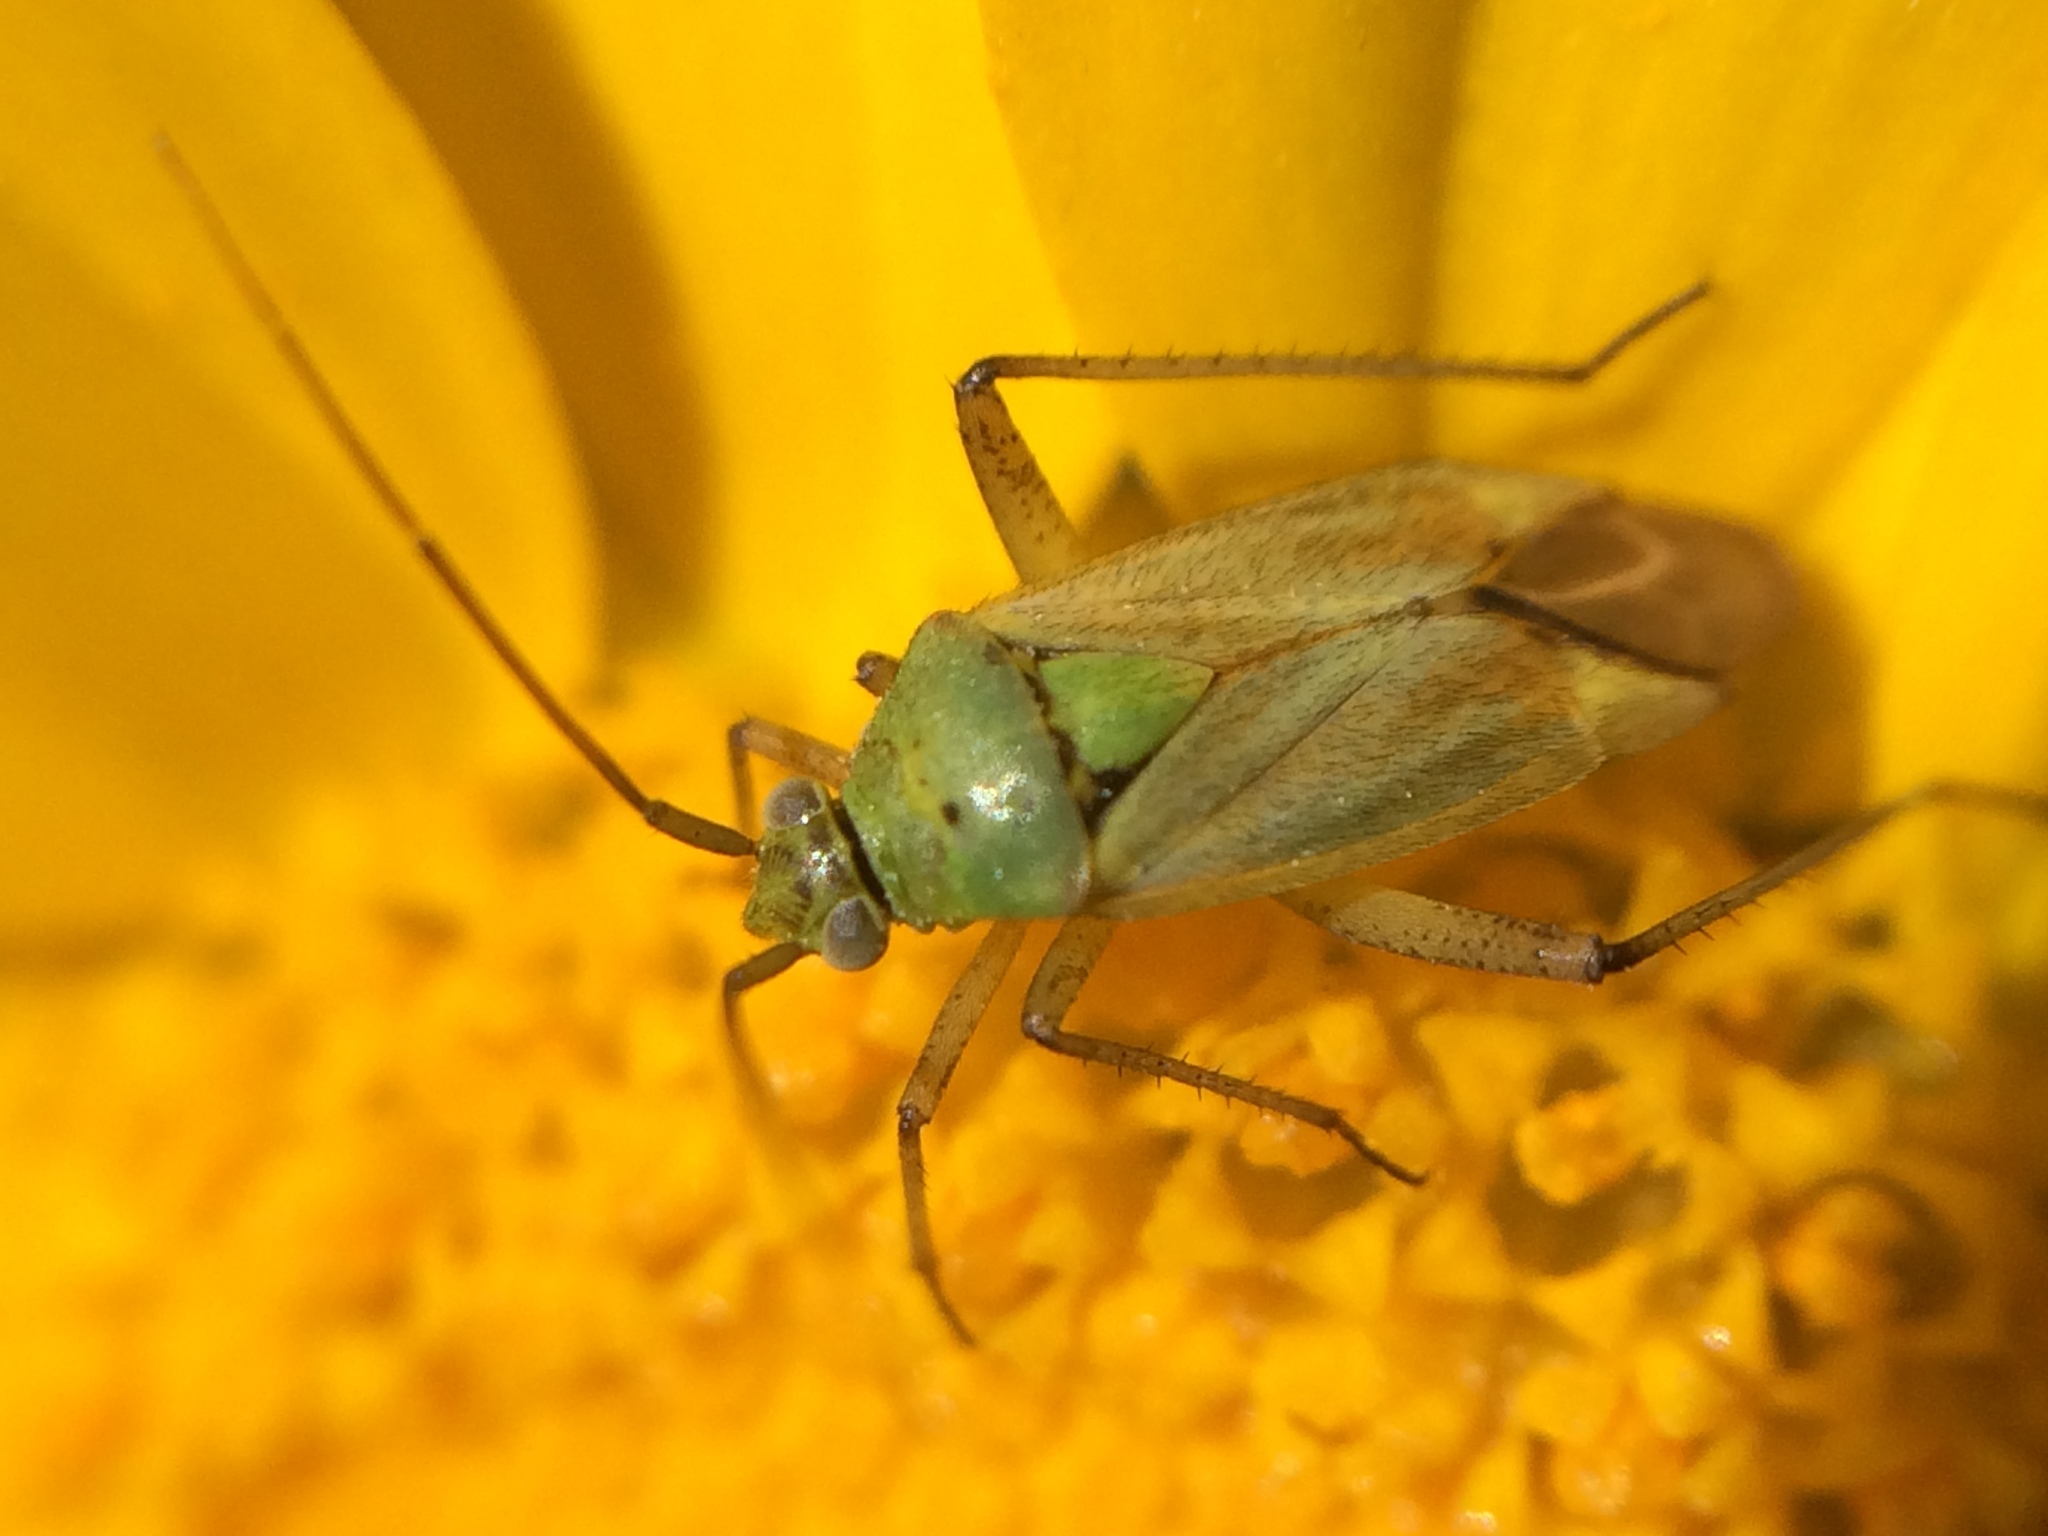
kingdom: Animalia
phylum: Arthropoda
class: Insecta
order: Hemiptera
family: Miridae
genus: Closterotomus
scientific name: Closterotomus norvegicus
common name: Plant bug
